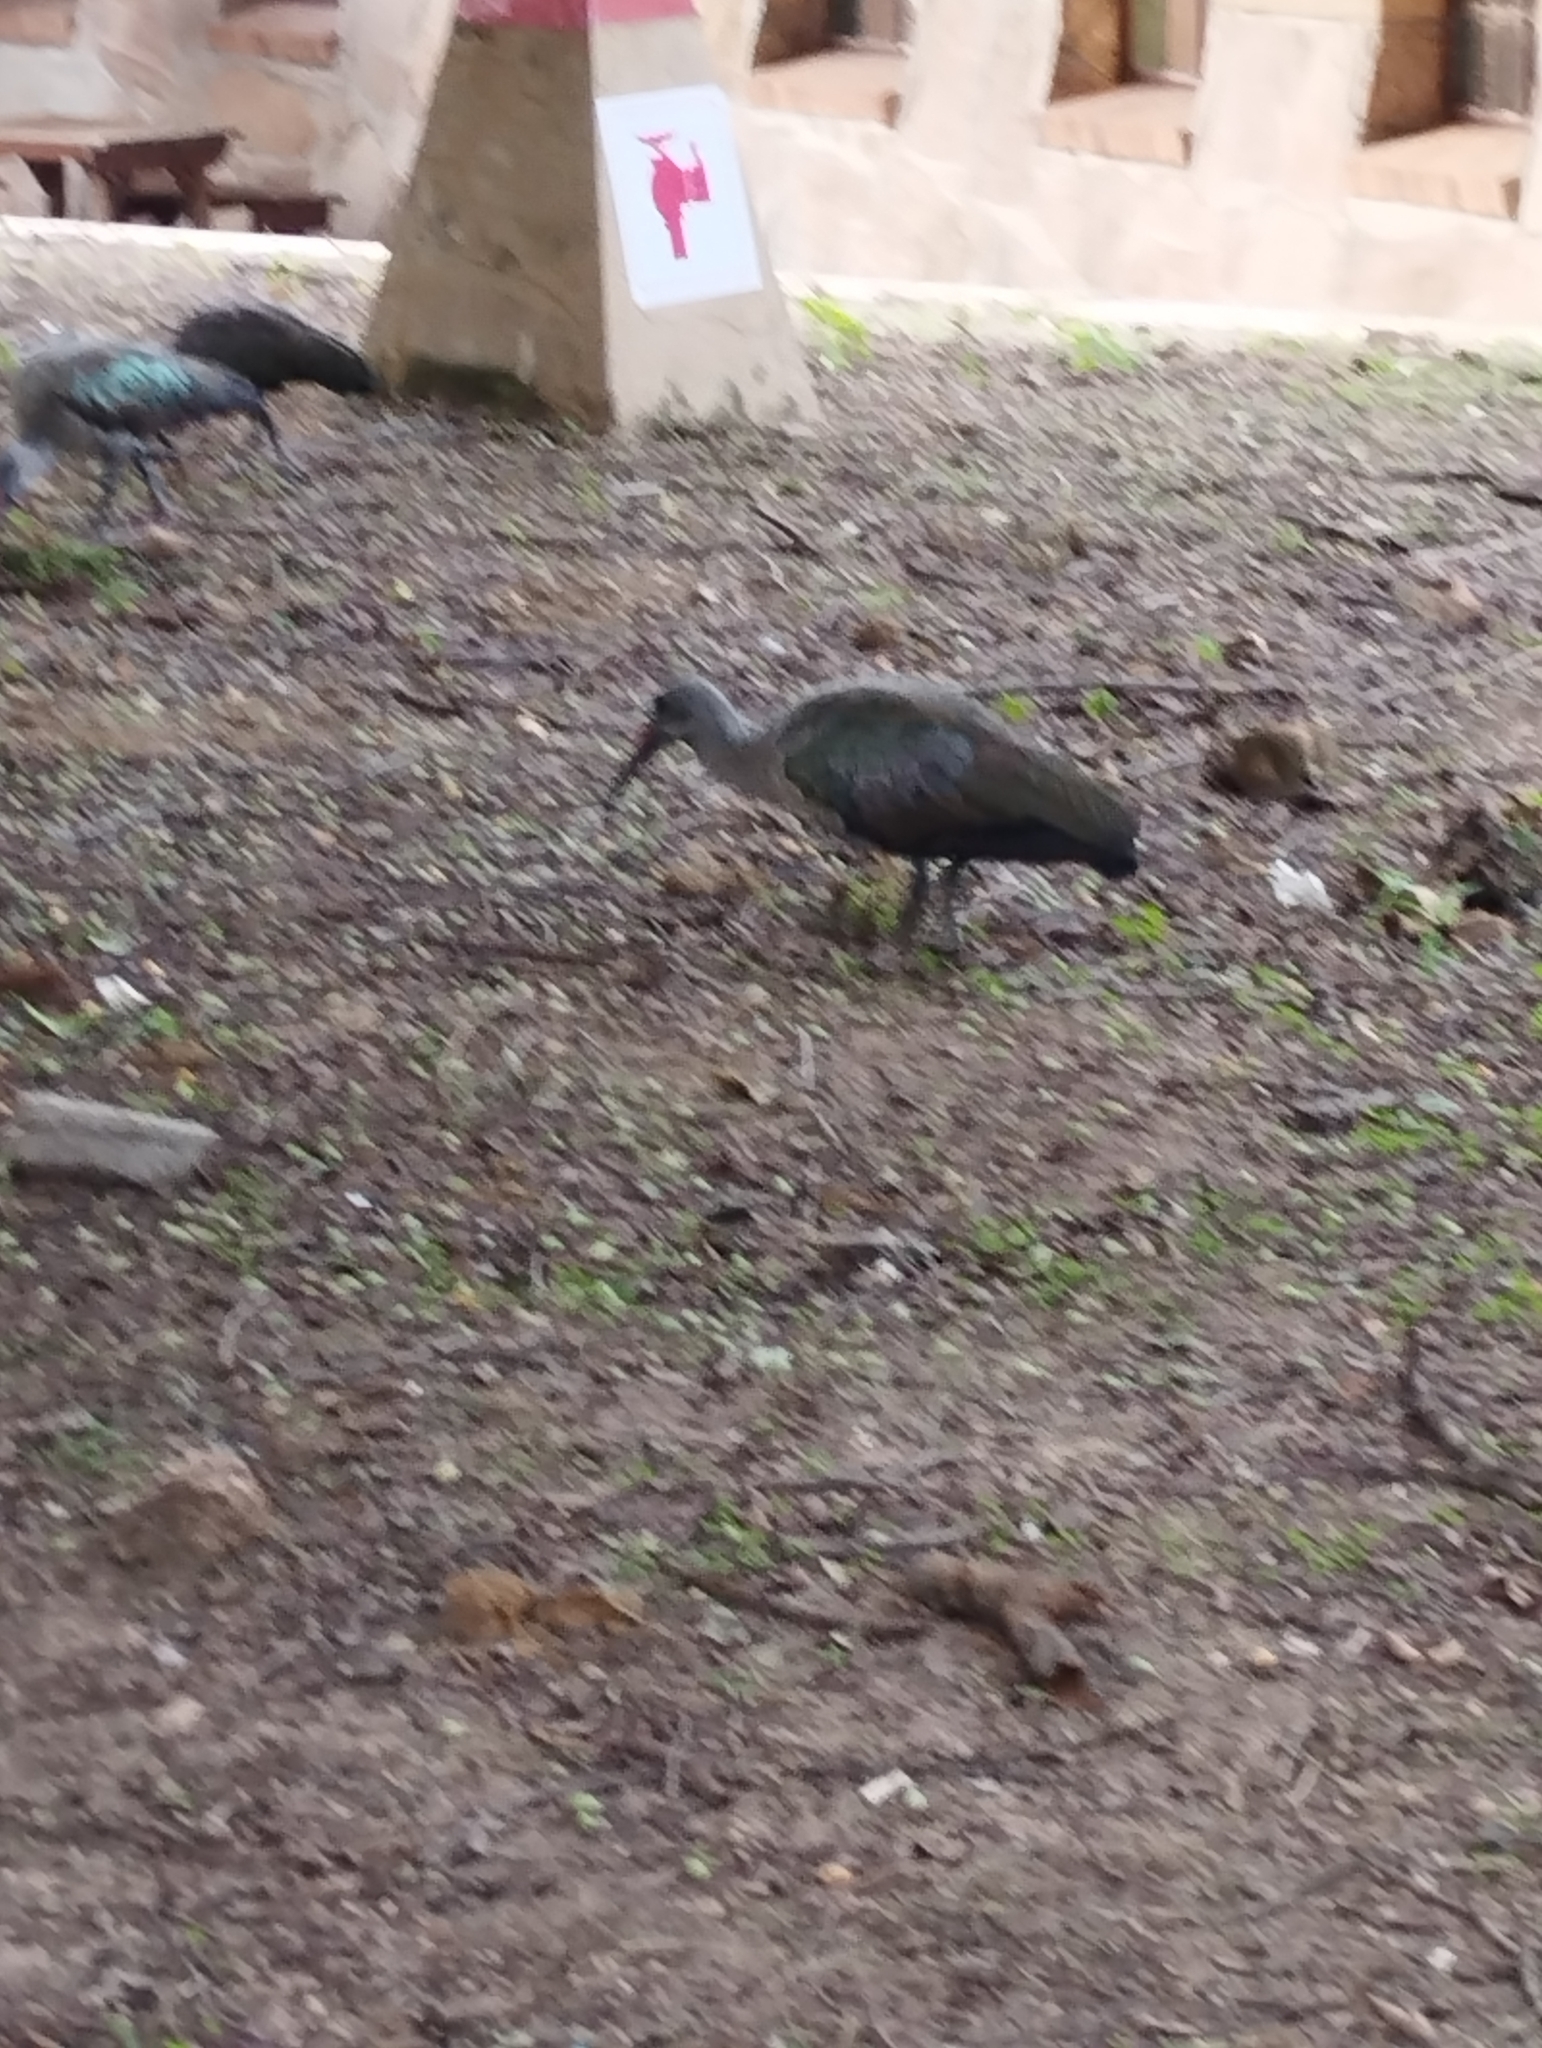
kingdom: Animalia
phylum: Chordata
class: Aves
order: Pelecaniformes
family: Threskiornithidae
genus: Bostrychia
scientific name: Bostrychia hagedash
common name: Hadada ibis
